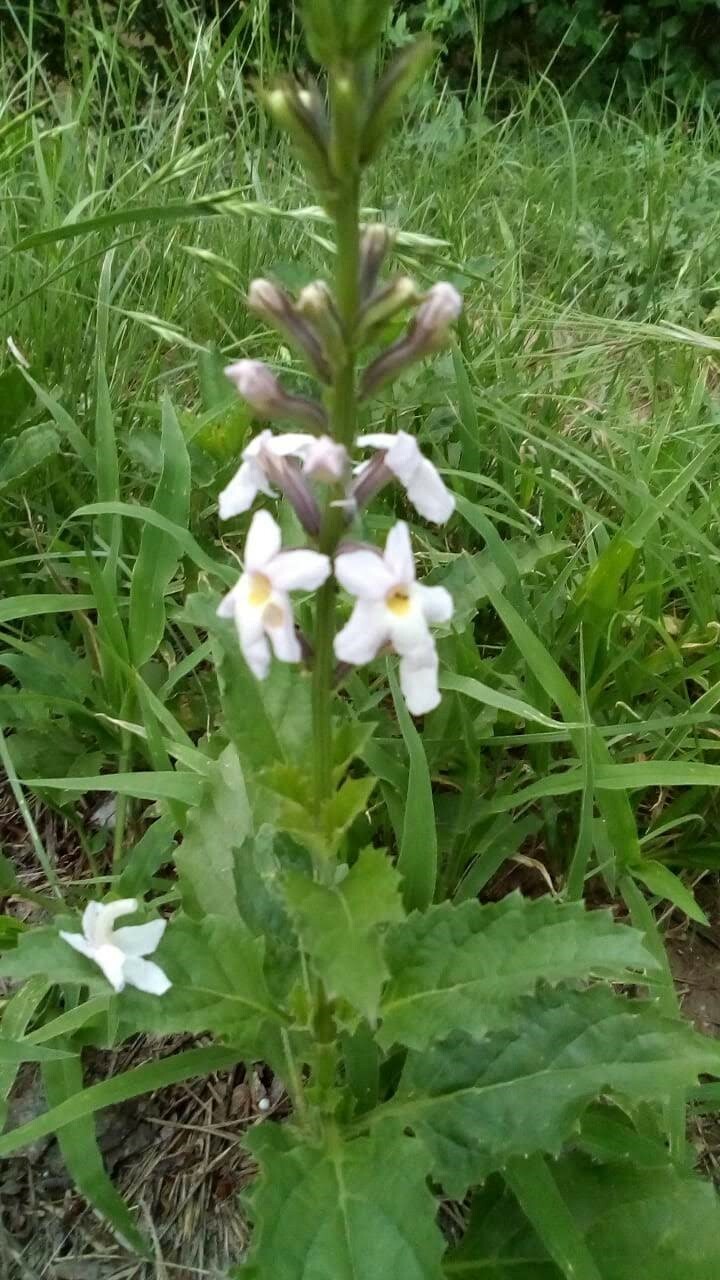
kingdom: Plantae
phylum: Tracheophyta
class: Magnoliopsida
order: Lamiales
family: Verbenaceae
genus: Pitraea
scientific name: Pitraea cuneato-ovata
